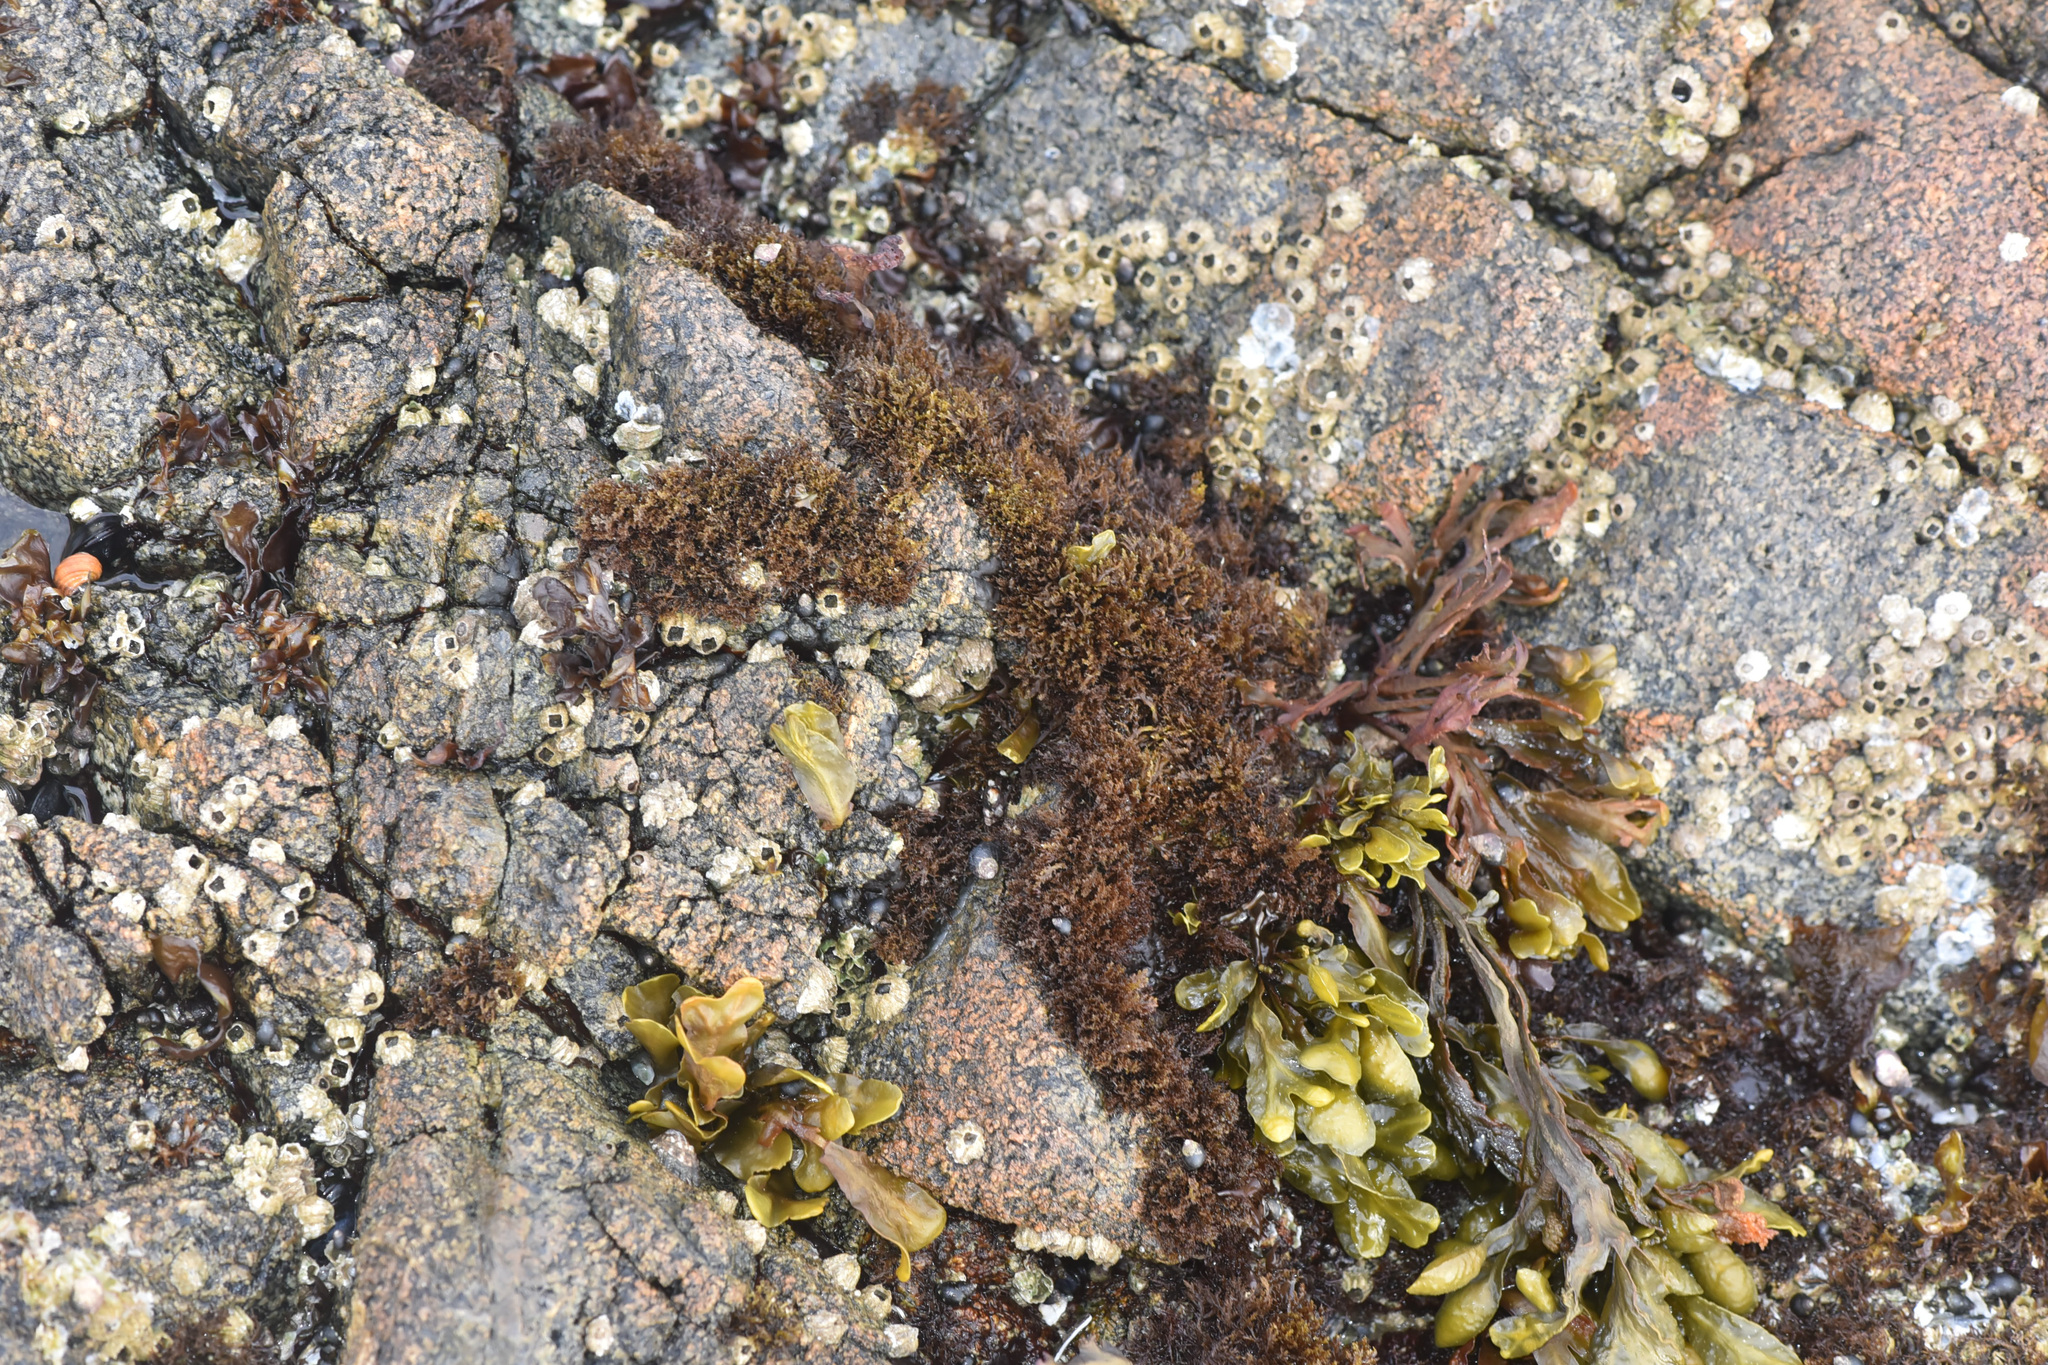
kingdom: Chromista
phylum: Ochrophyta
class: Phaeophyceae
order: Fucales
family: Fucaceae
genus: Fucus
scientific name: Fucus distichus
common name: Rockweed
